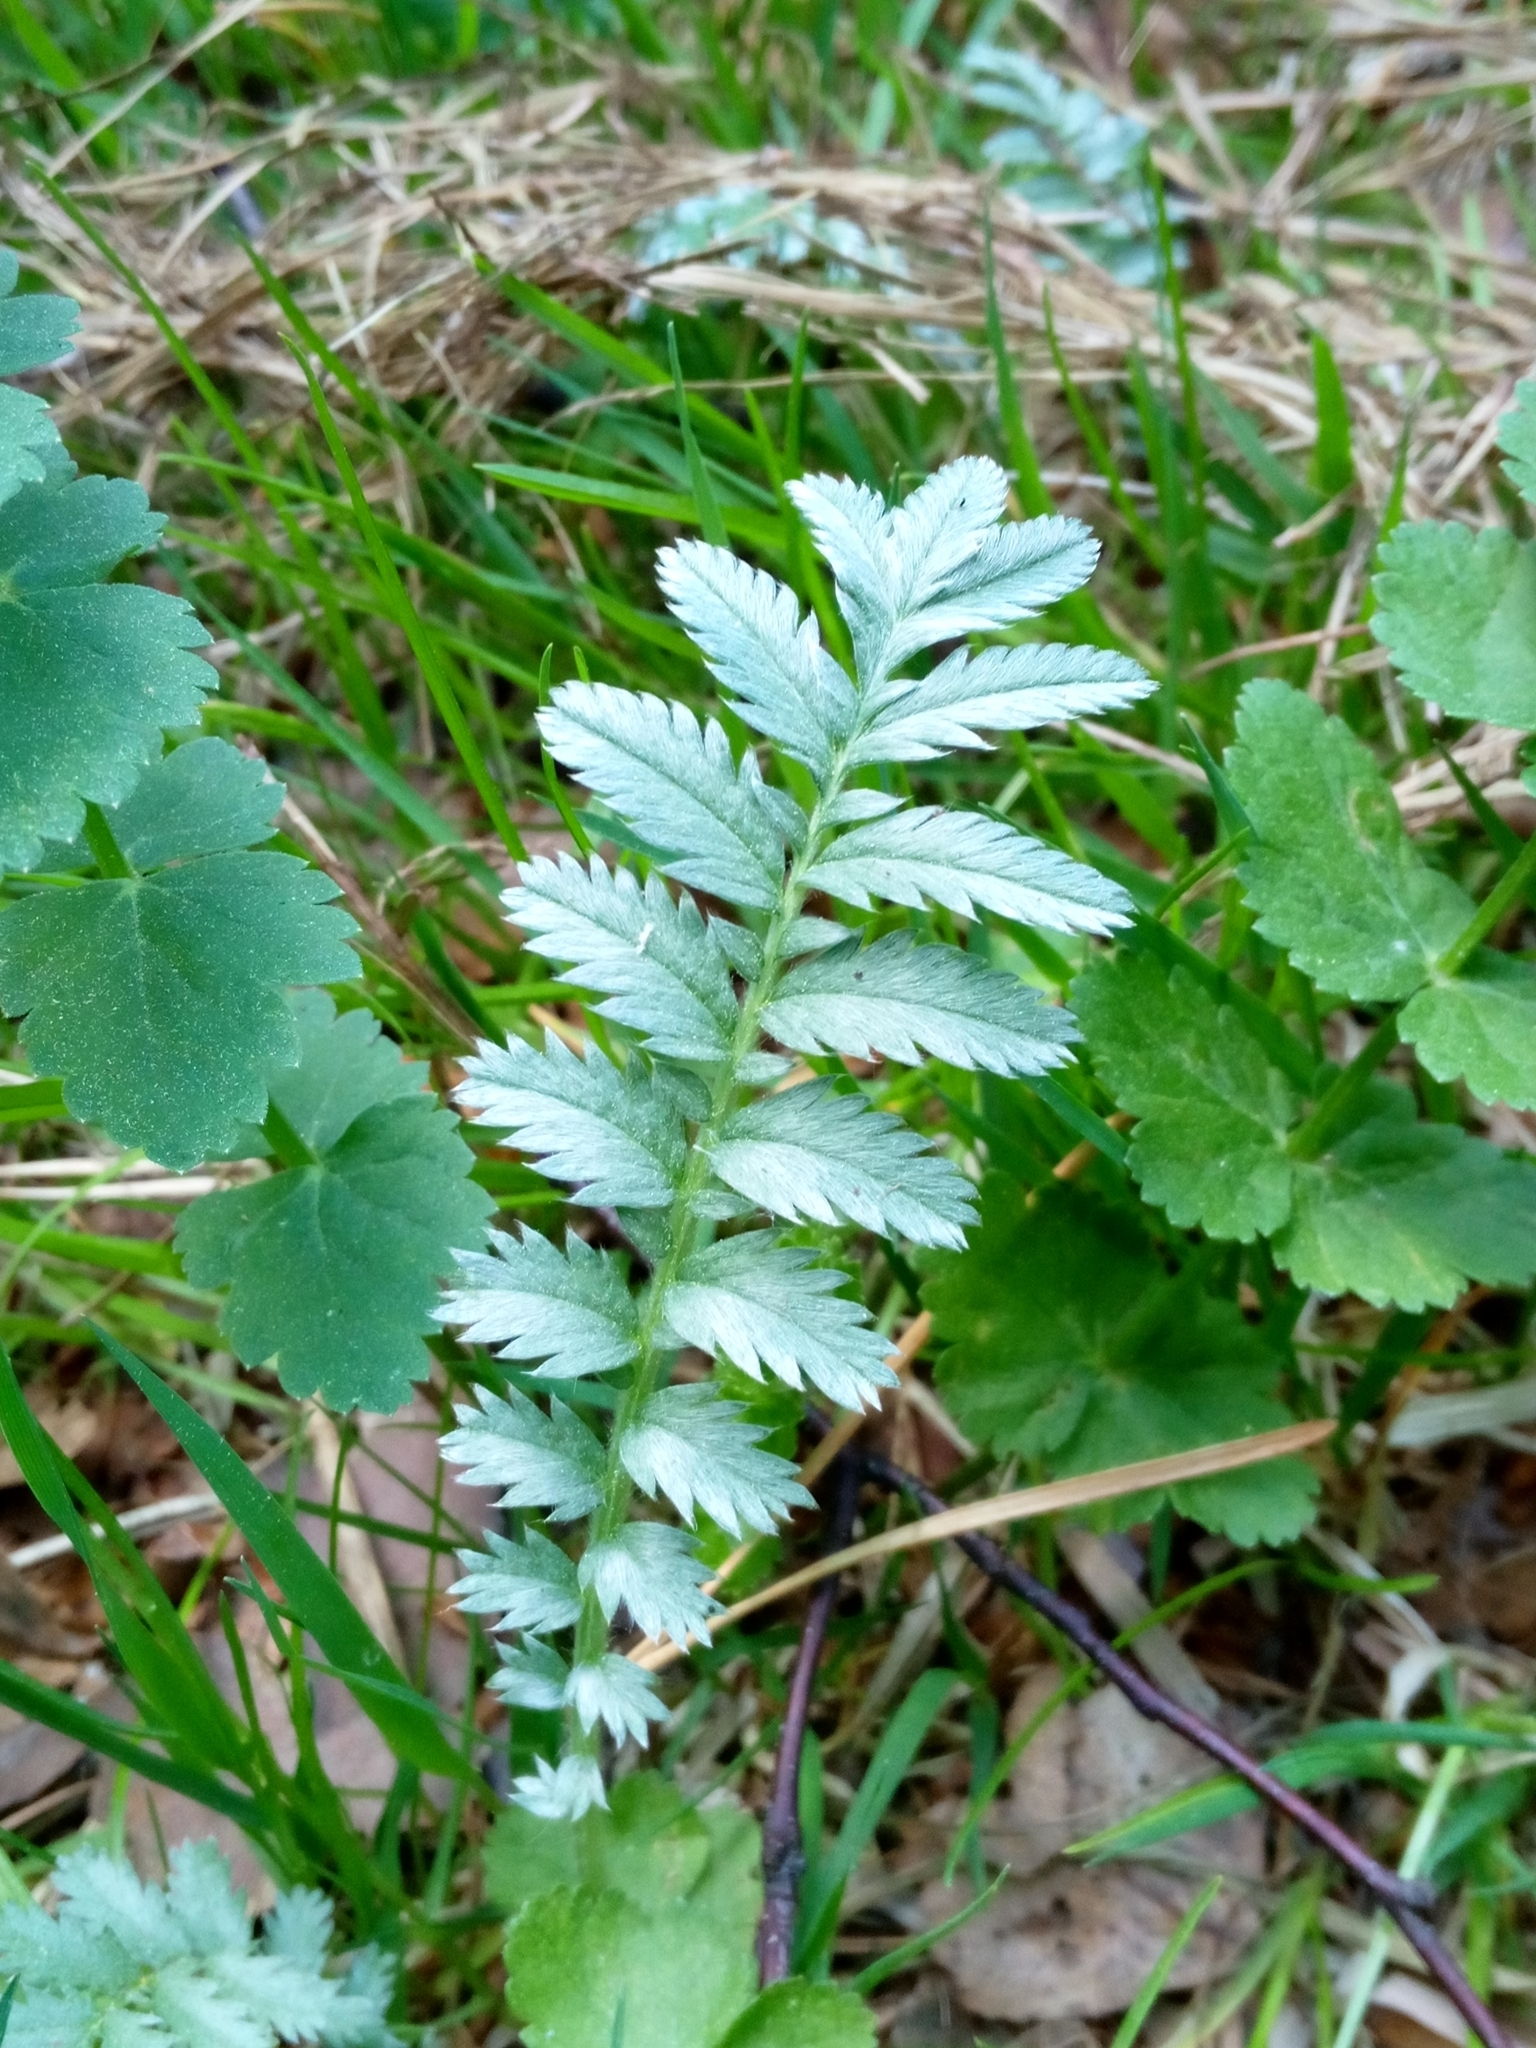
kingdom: Plantae
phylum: Tracheophyta
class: Magnoliopsida
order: Rosales
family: Rosaceae
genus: Argentina
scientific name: Argentina anserina
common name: Common silverweed
